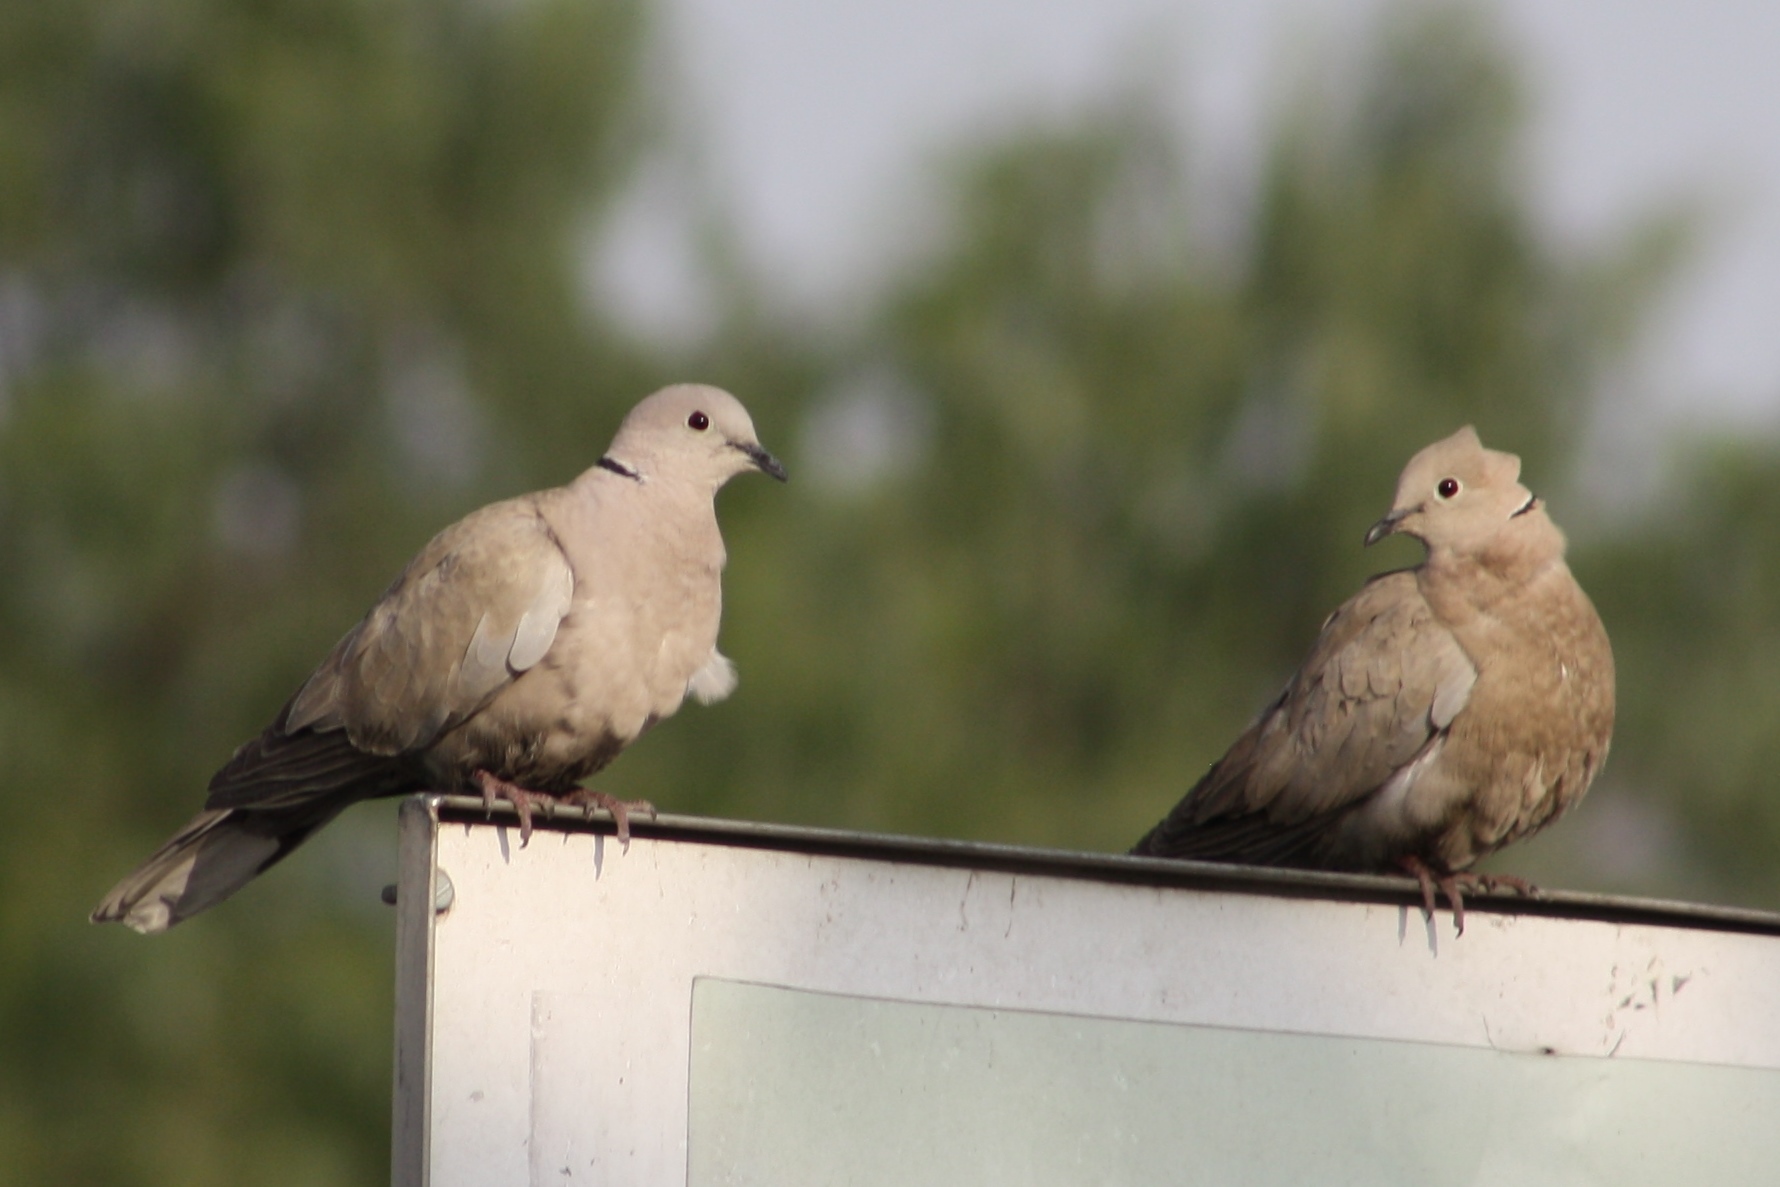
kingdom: Animalia
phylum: Chordata
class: Aves
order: Columbiformes
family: Columbidae
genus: Streptopelia
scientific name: Streptopelia decaocto
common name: Eurasian collared dove
